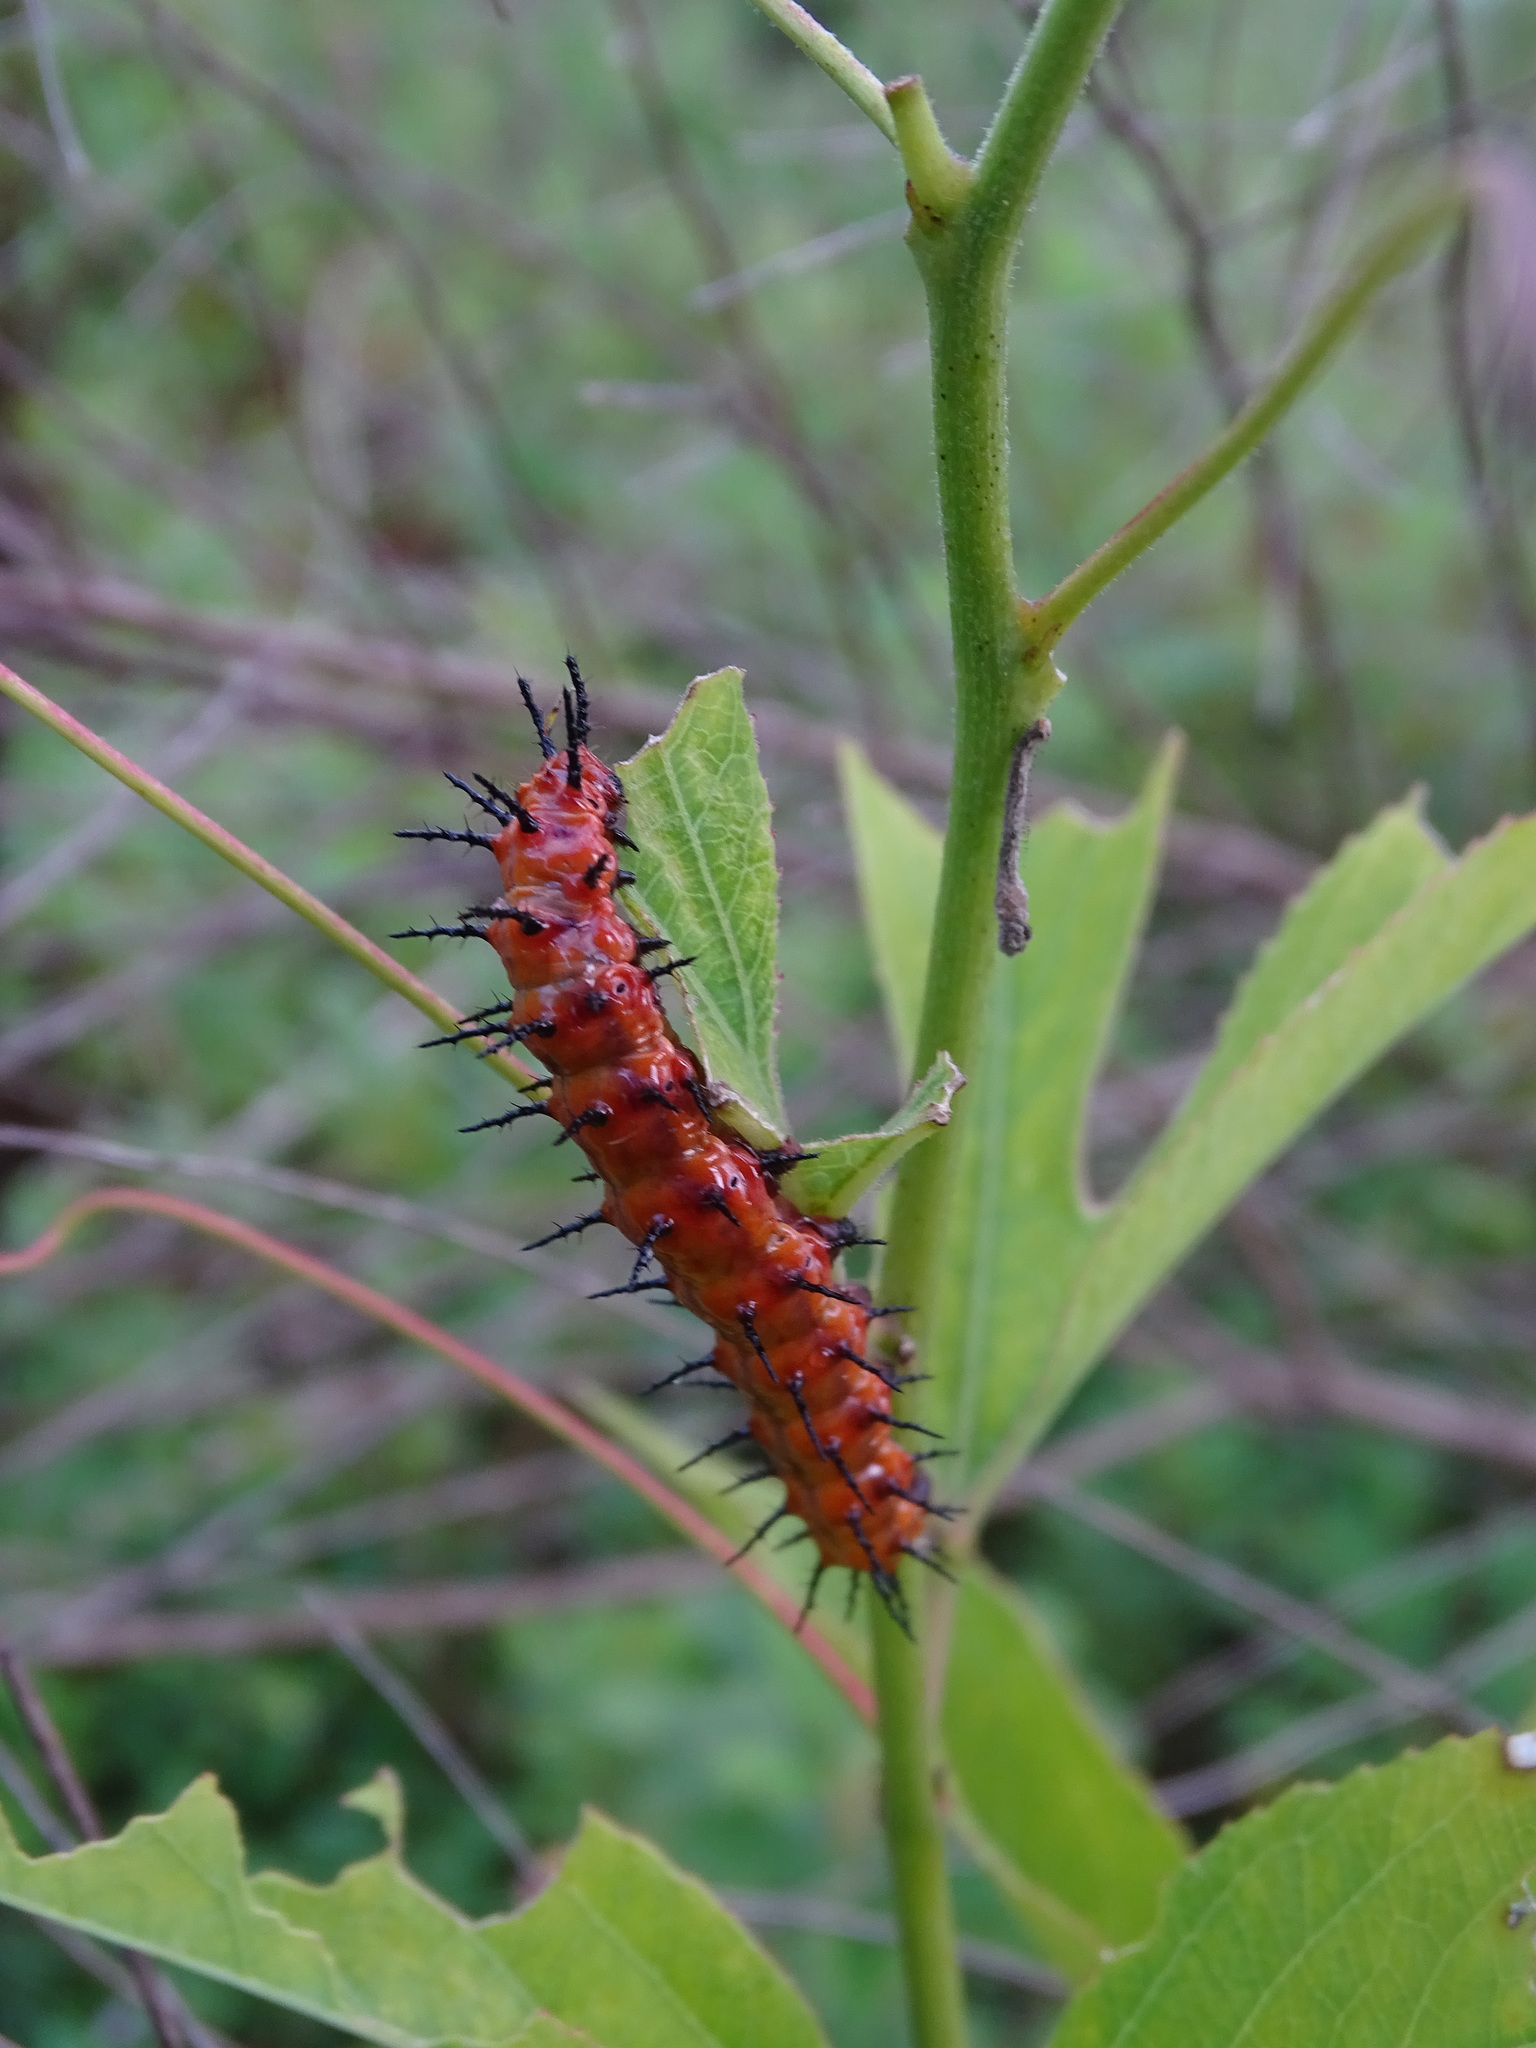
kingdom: Animalia
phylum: Arthropoda
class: Insecta
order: Lepidoptera
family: Nymphalidae
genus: Dione
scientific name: Dione vanillae
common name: Gulf fritillary
